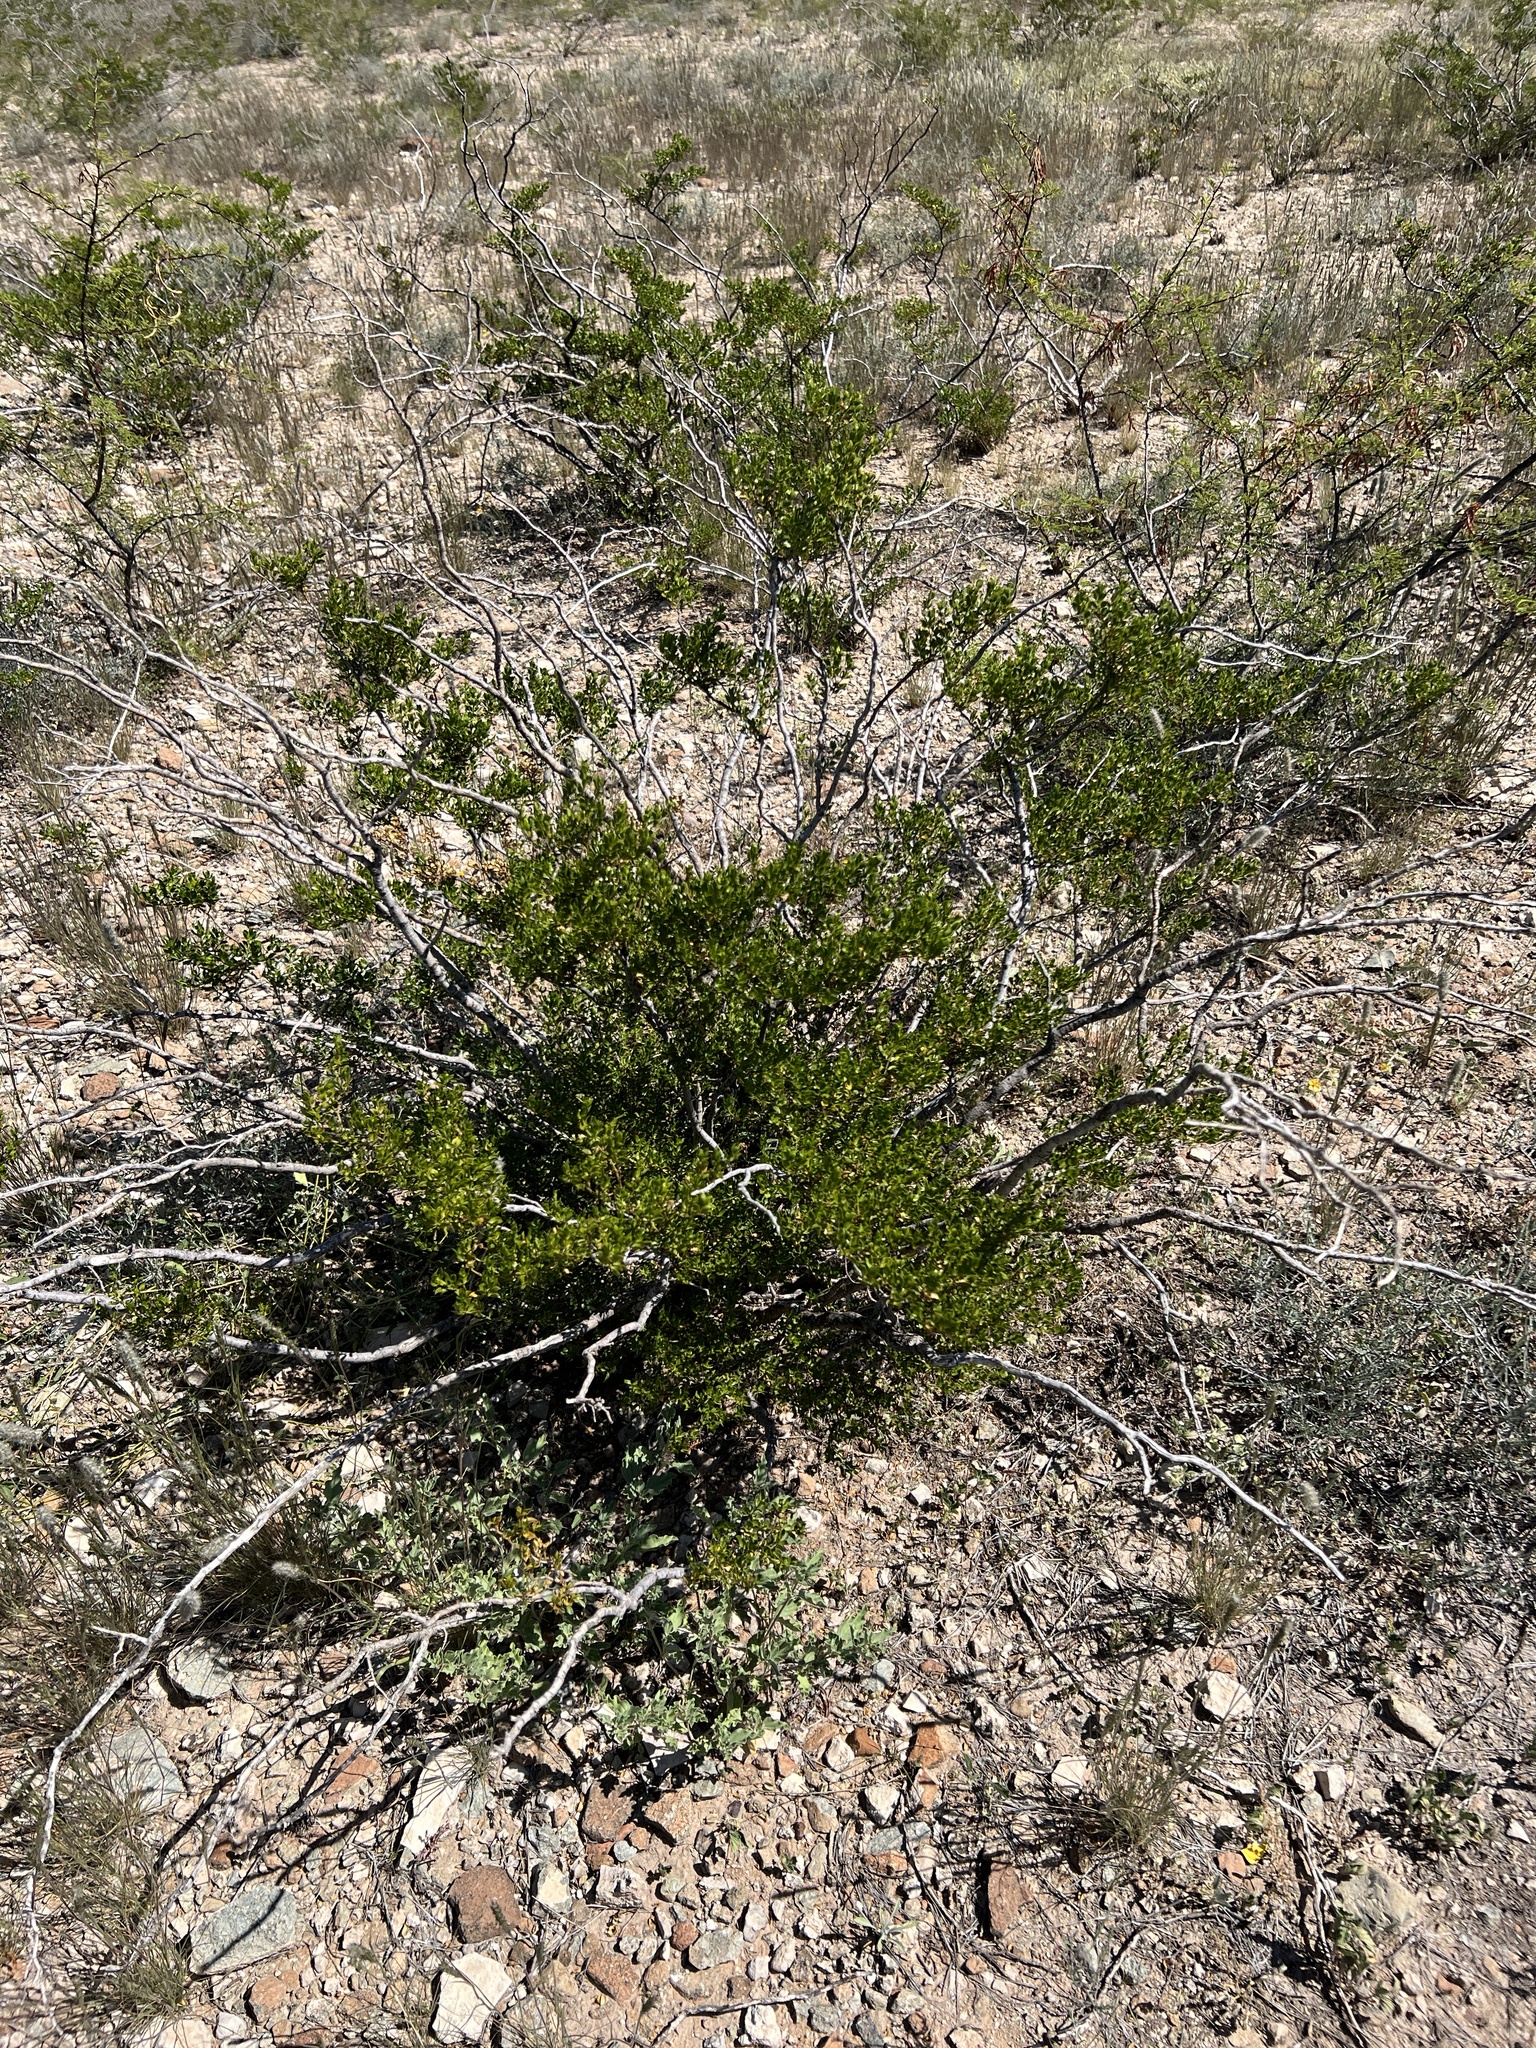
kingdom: Plantae
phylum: Tracheophyta
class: Magnoliopsida
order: Zygophyllales
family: Zygophyllaceae
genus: Larrea
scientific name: Larrea tridentata
